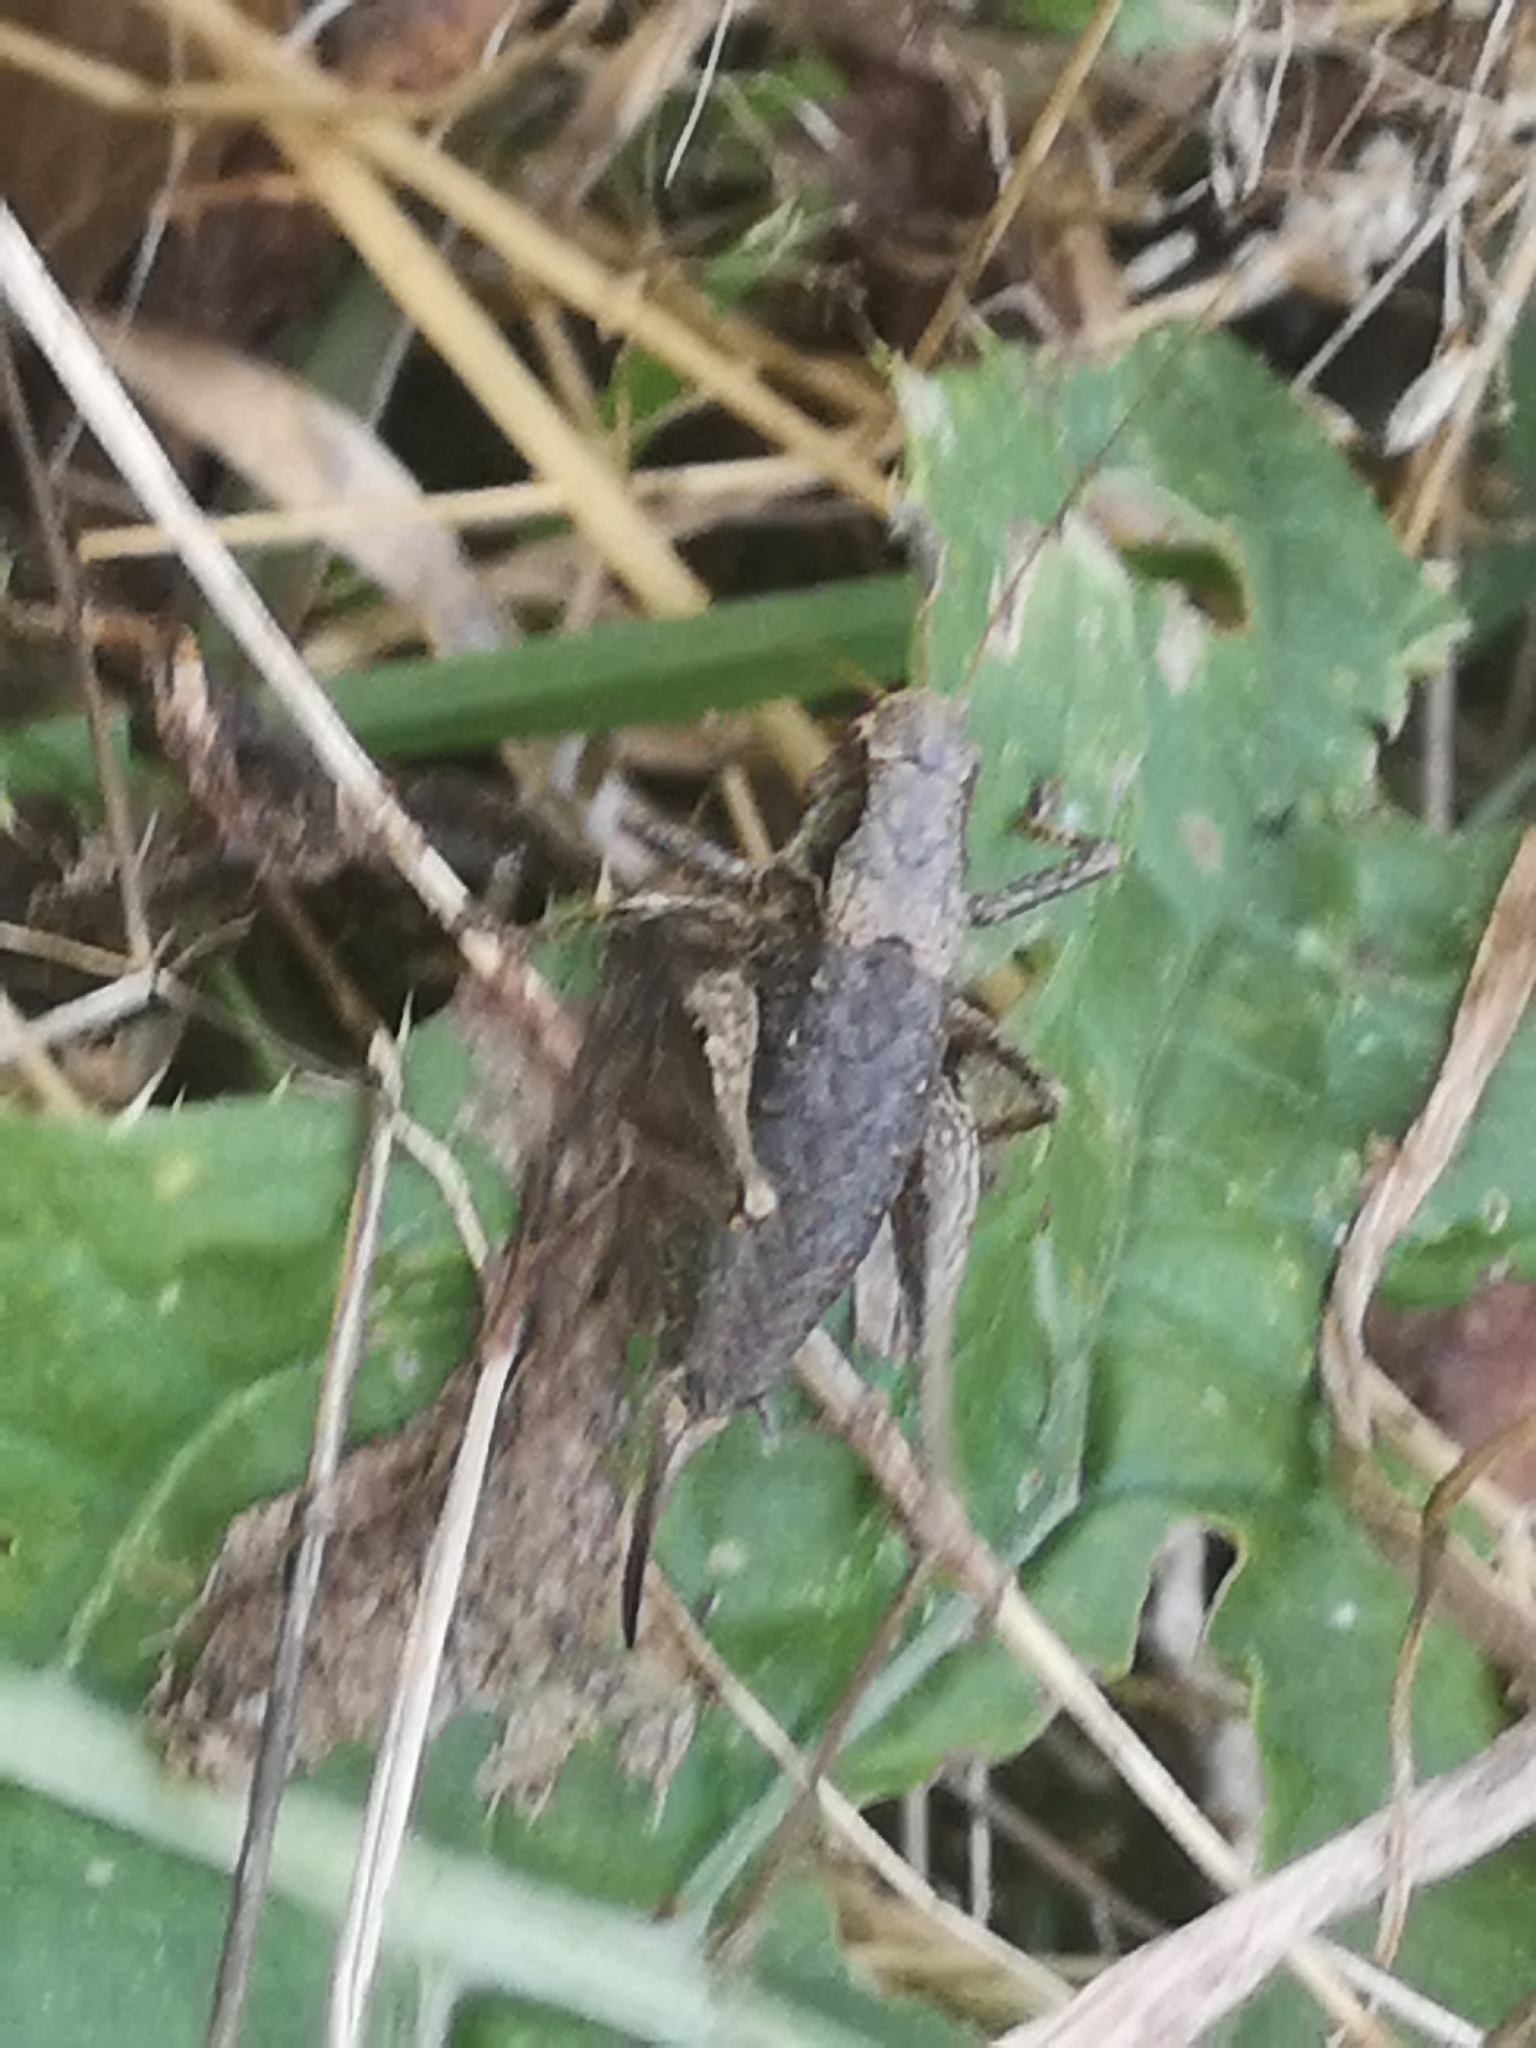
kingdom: Animalia
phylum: Arthropoda
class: Insecta
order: Orthoptera
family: Tettigoniidae
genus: Pholidoptera
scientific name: Pholidoptera griseoaptera
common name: Dark bush-cricket
